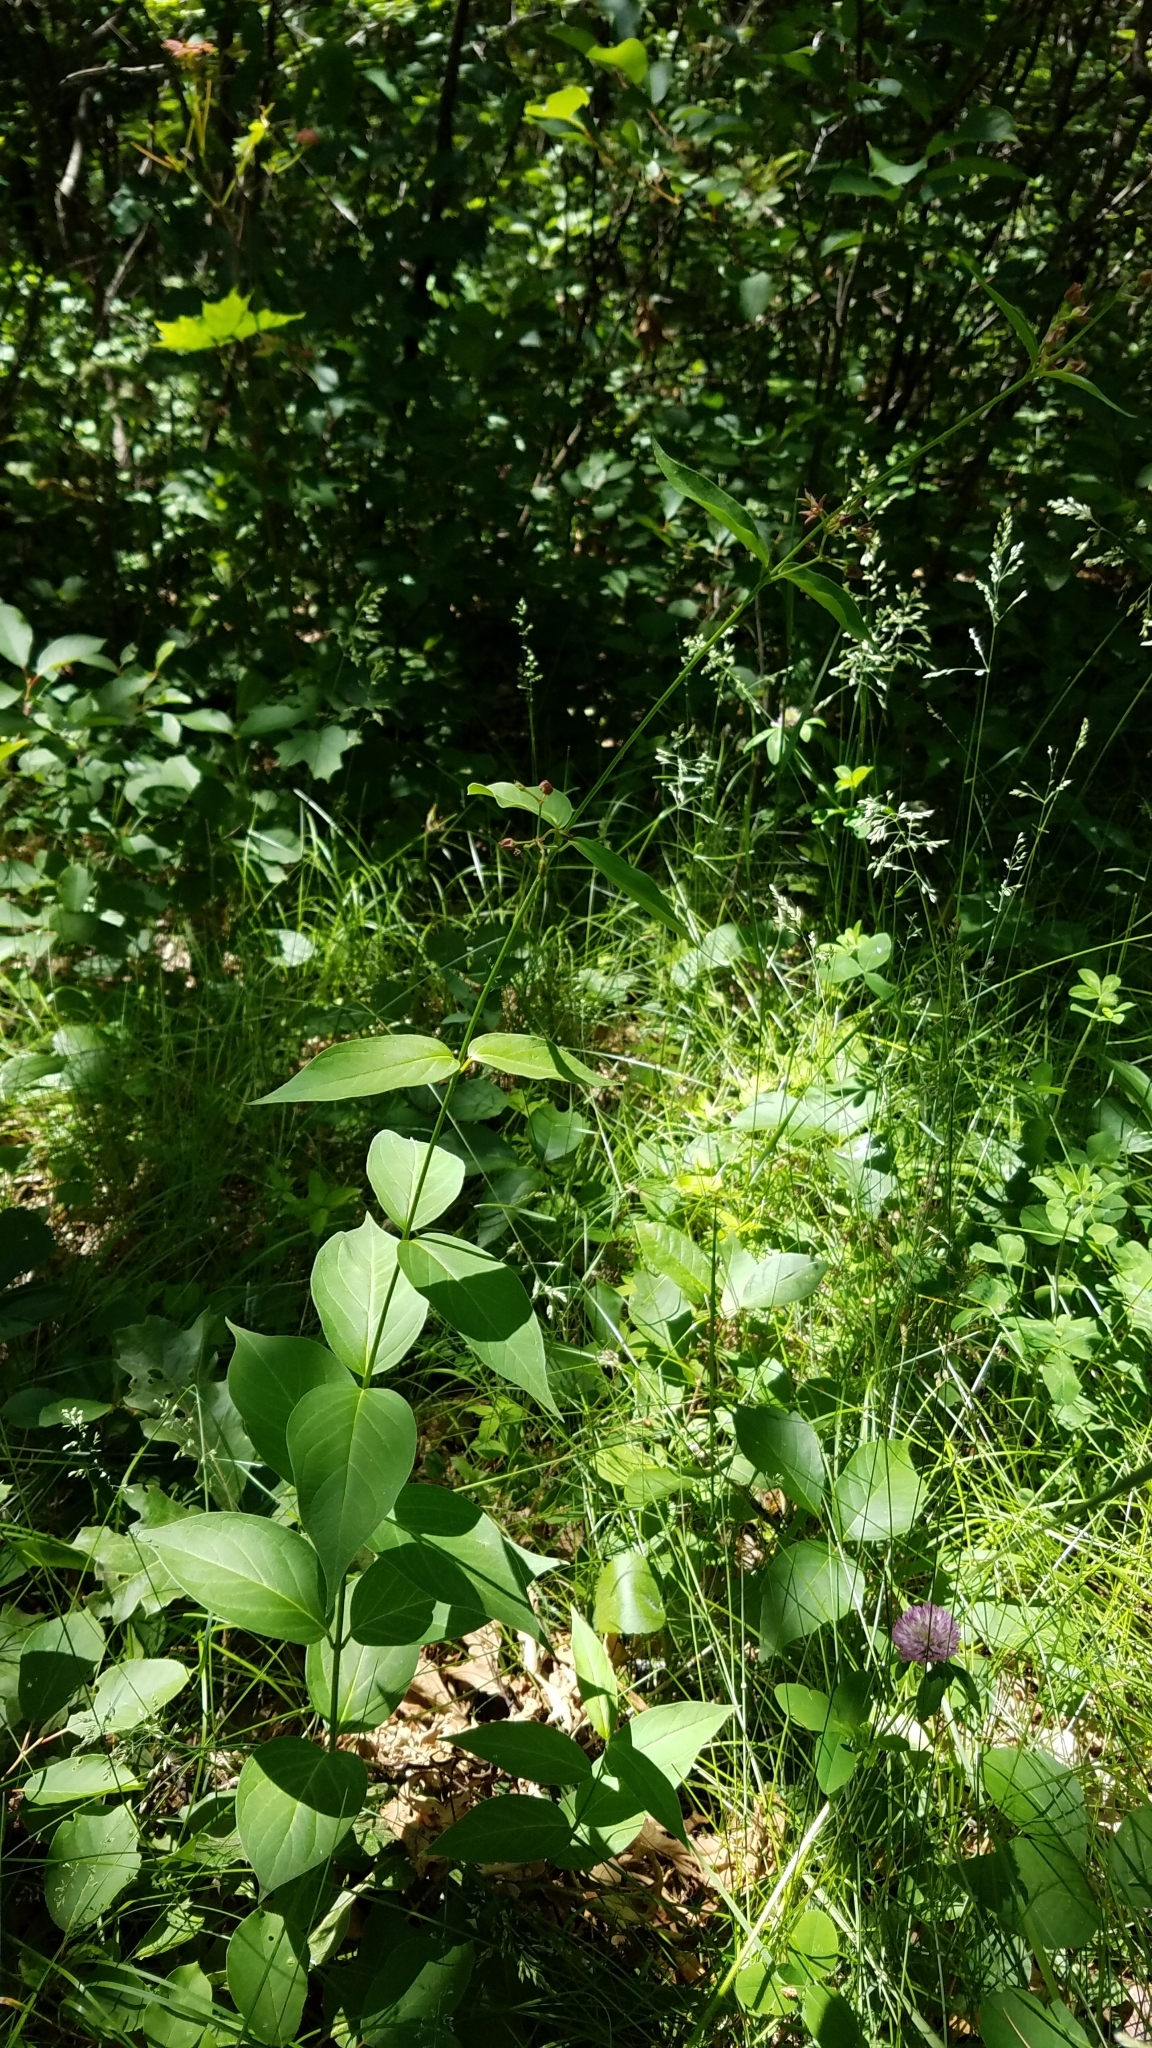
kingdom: Plantae
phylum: Tracheophyta
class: Magnoliopsida
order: Gentianales
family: Apocynaceae
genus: Vincetoxicum
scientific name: Vincetoxicum rossicum
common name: Dog-strangling vine
